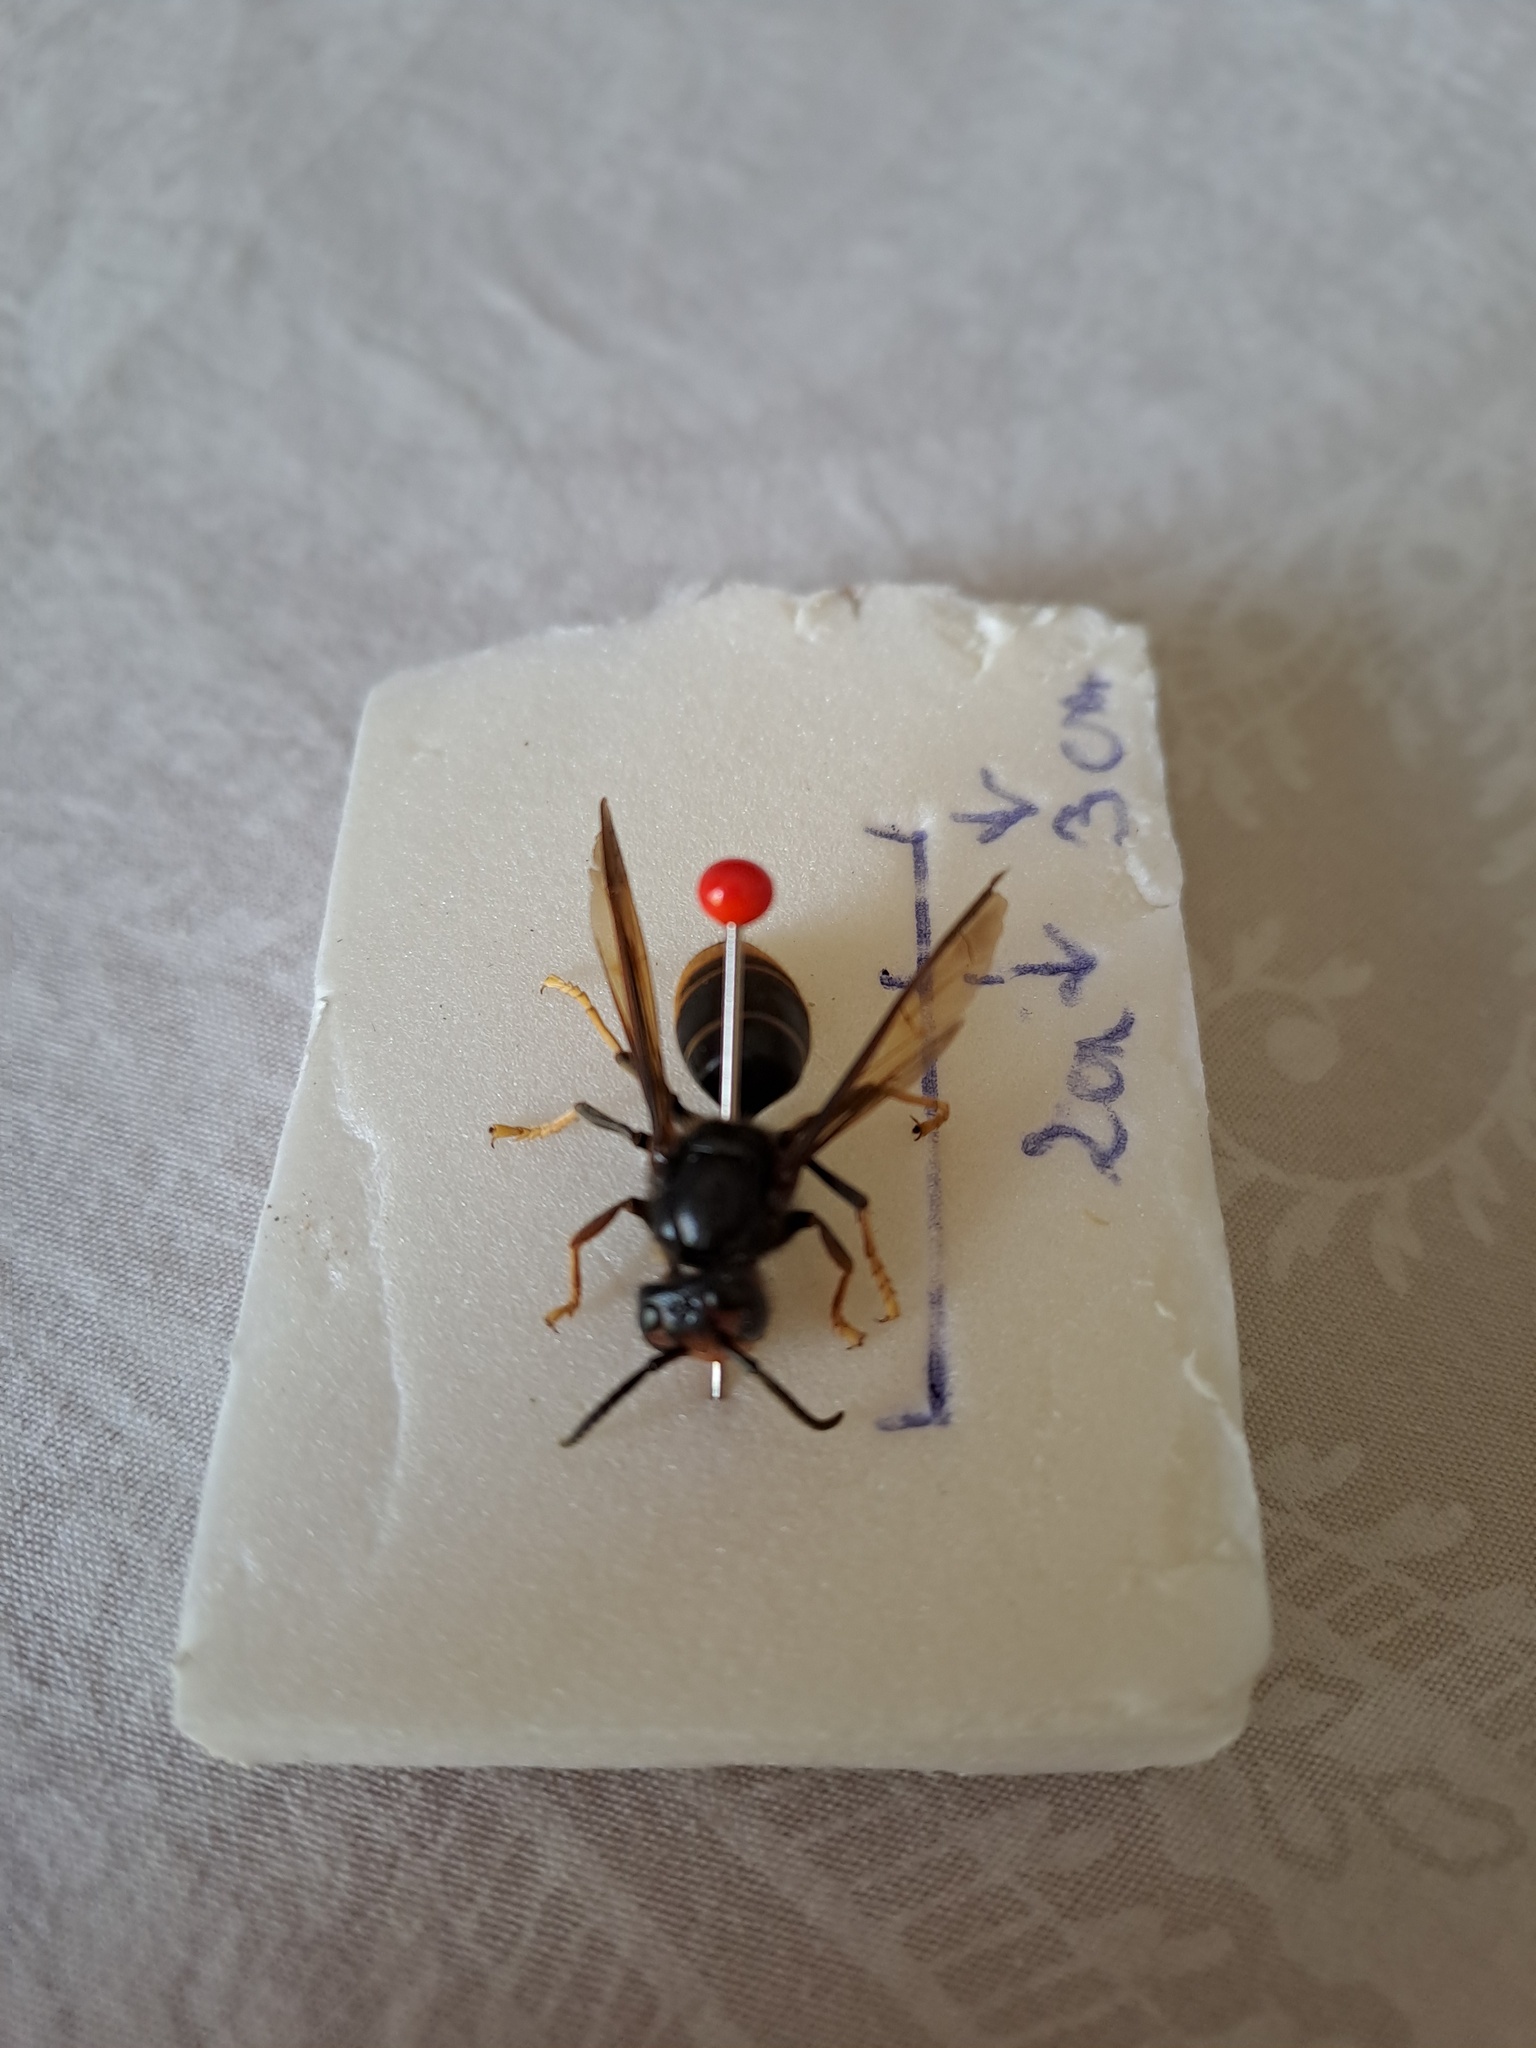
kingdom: Animalia
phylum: Arthropoda
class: Insecta
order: Hymenoptera
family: Vespidae
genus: Vespa
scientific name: Vespa velutina
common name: Asian hornet
